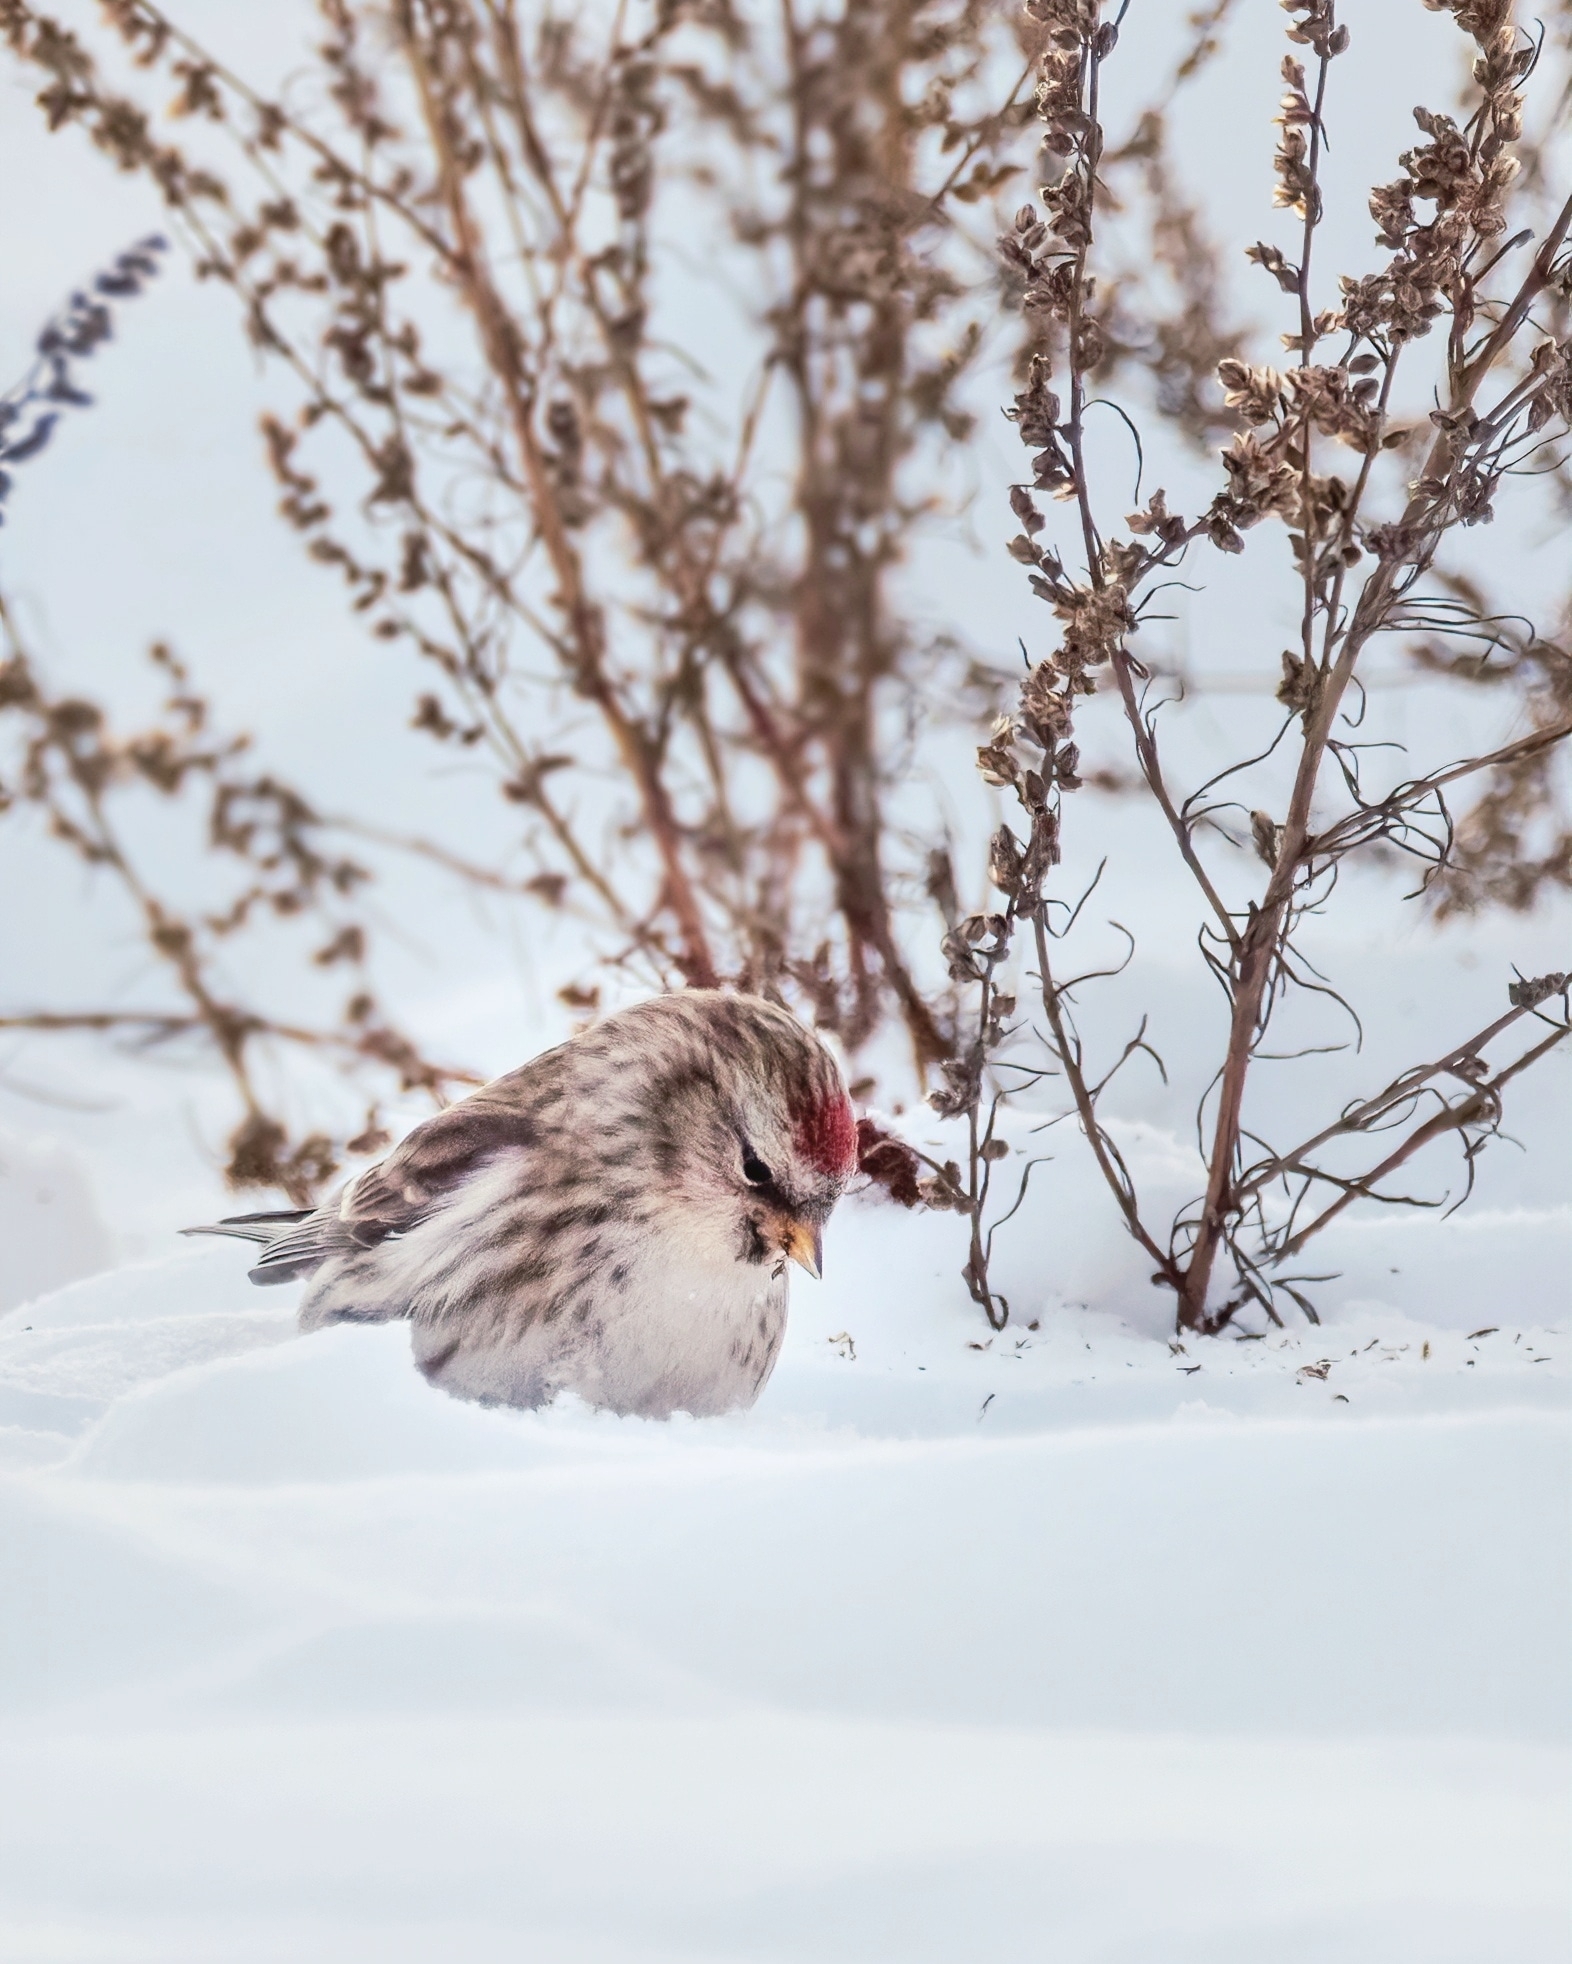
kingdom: Animalia
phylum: Chordata
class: Aves
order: Passeriformes
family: Fringillidae
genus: Acanthis
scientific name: Acanthis flammea
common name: Common redpoll
